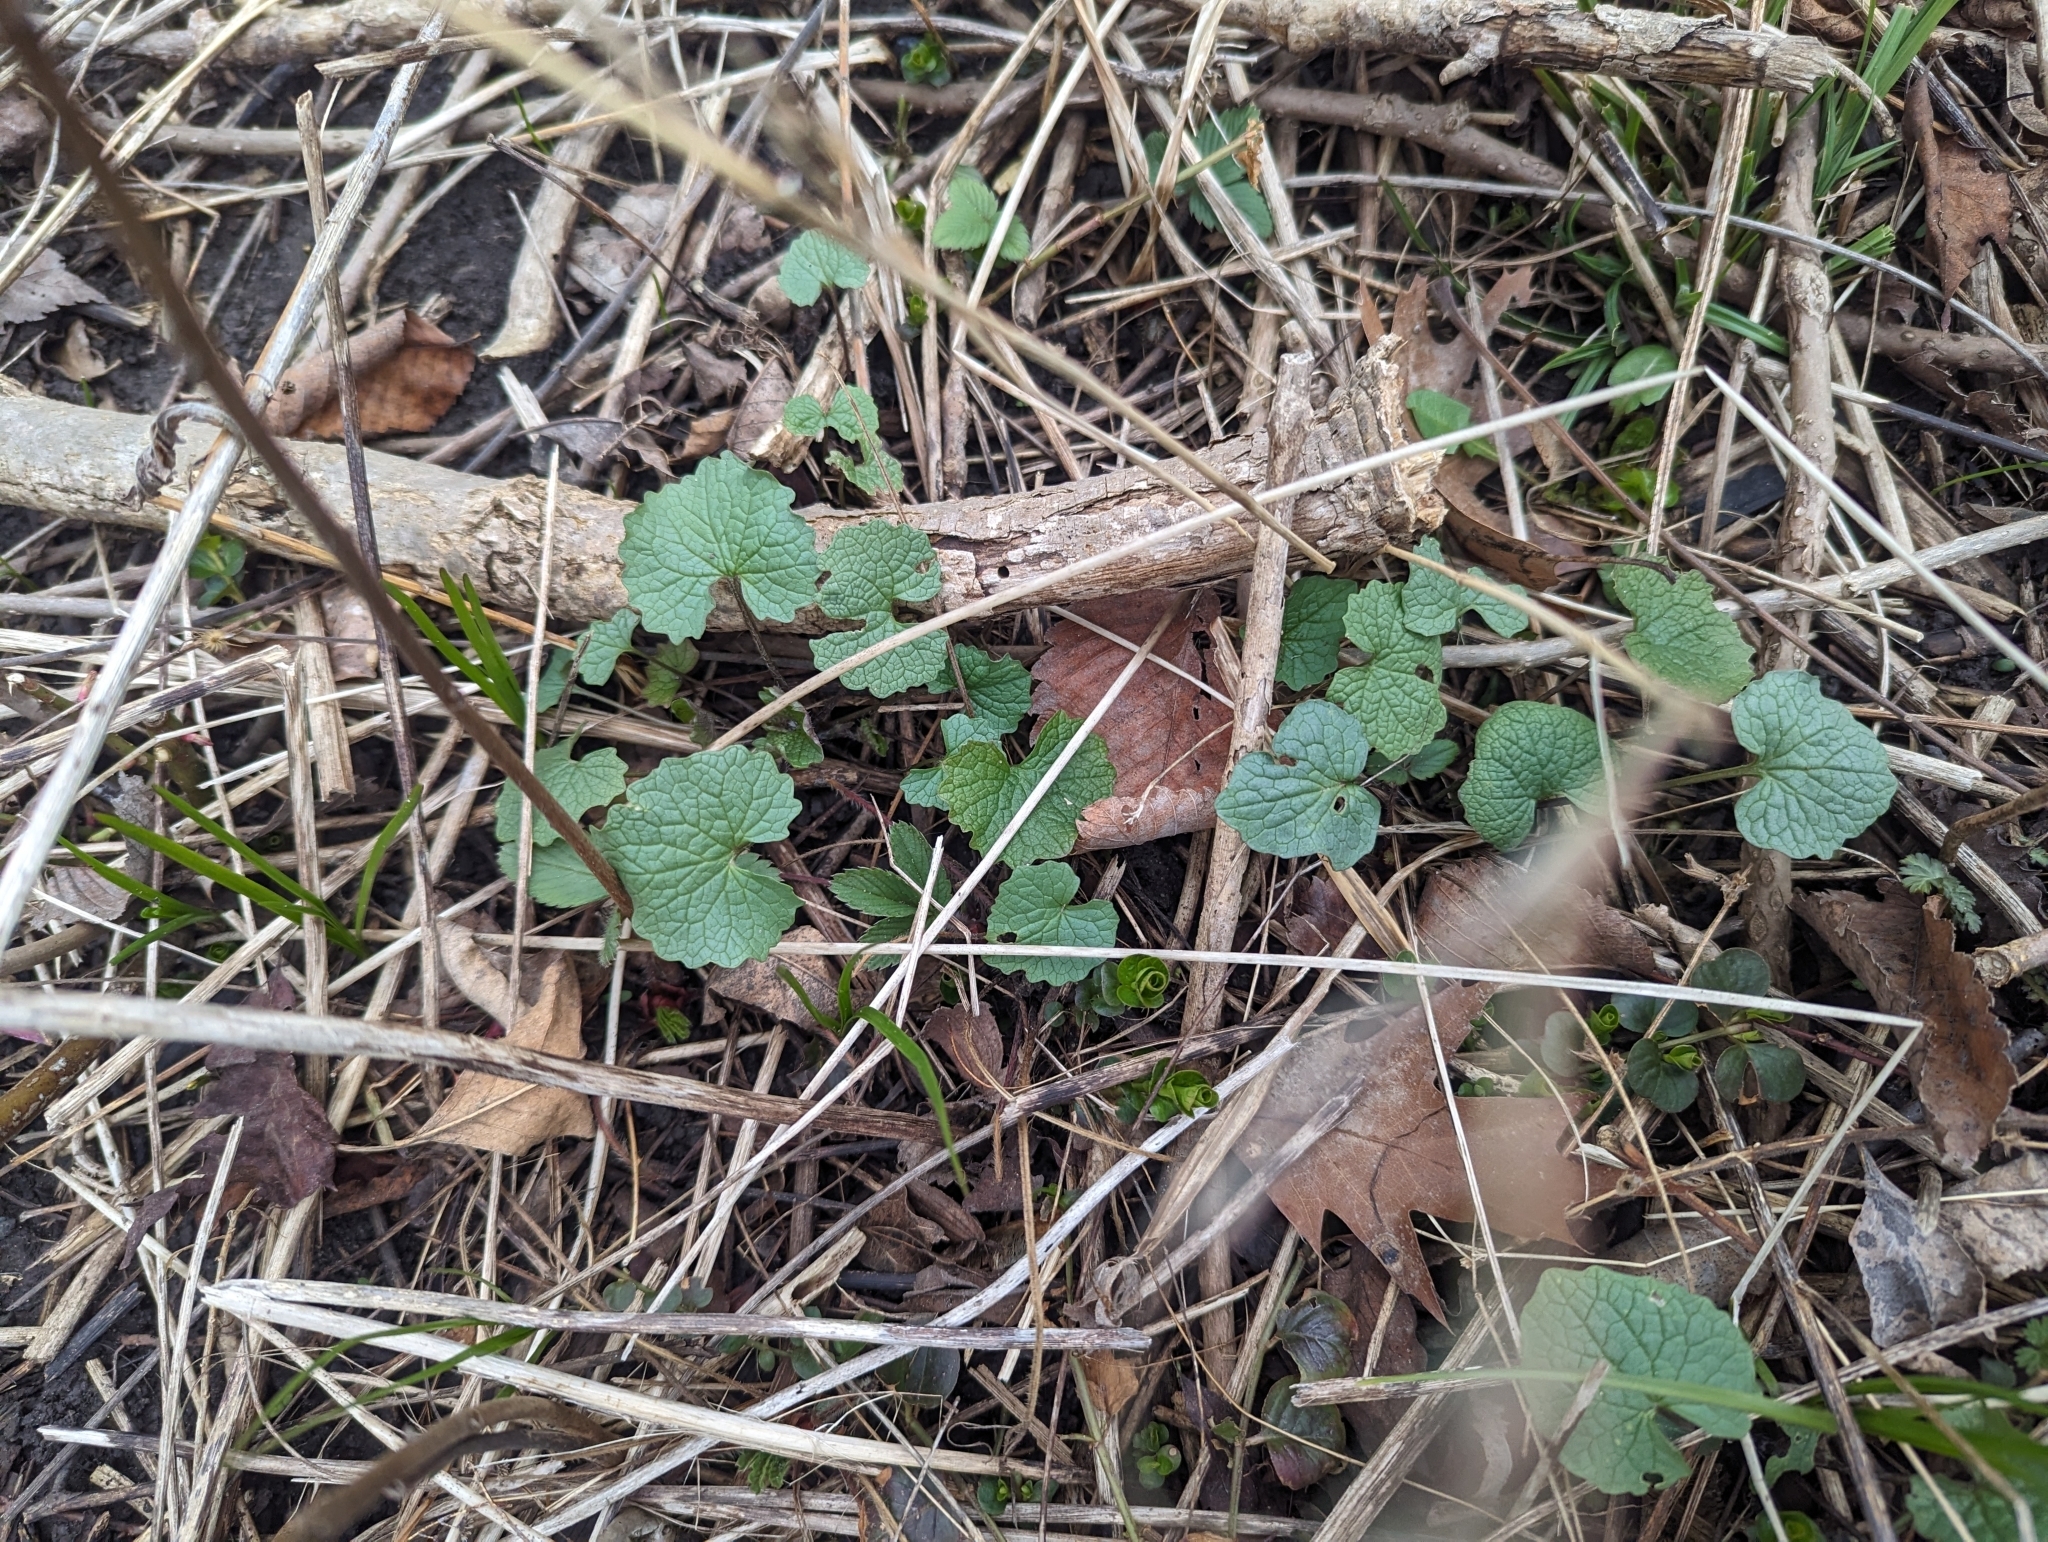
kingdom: Plantae
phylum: Tracheophyta
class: Magnoliopsida
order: Brassicales
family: Brassicaceae
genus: Alliaria
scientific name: Alliaria petiolata
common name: Garlic mustard
